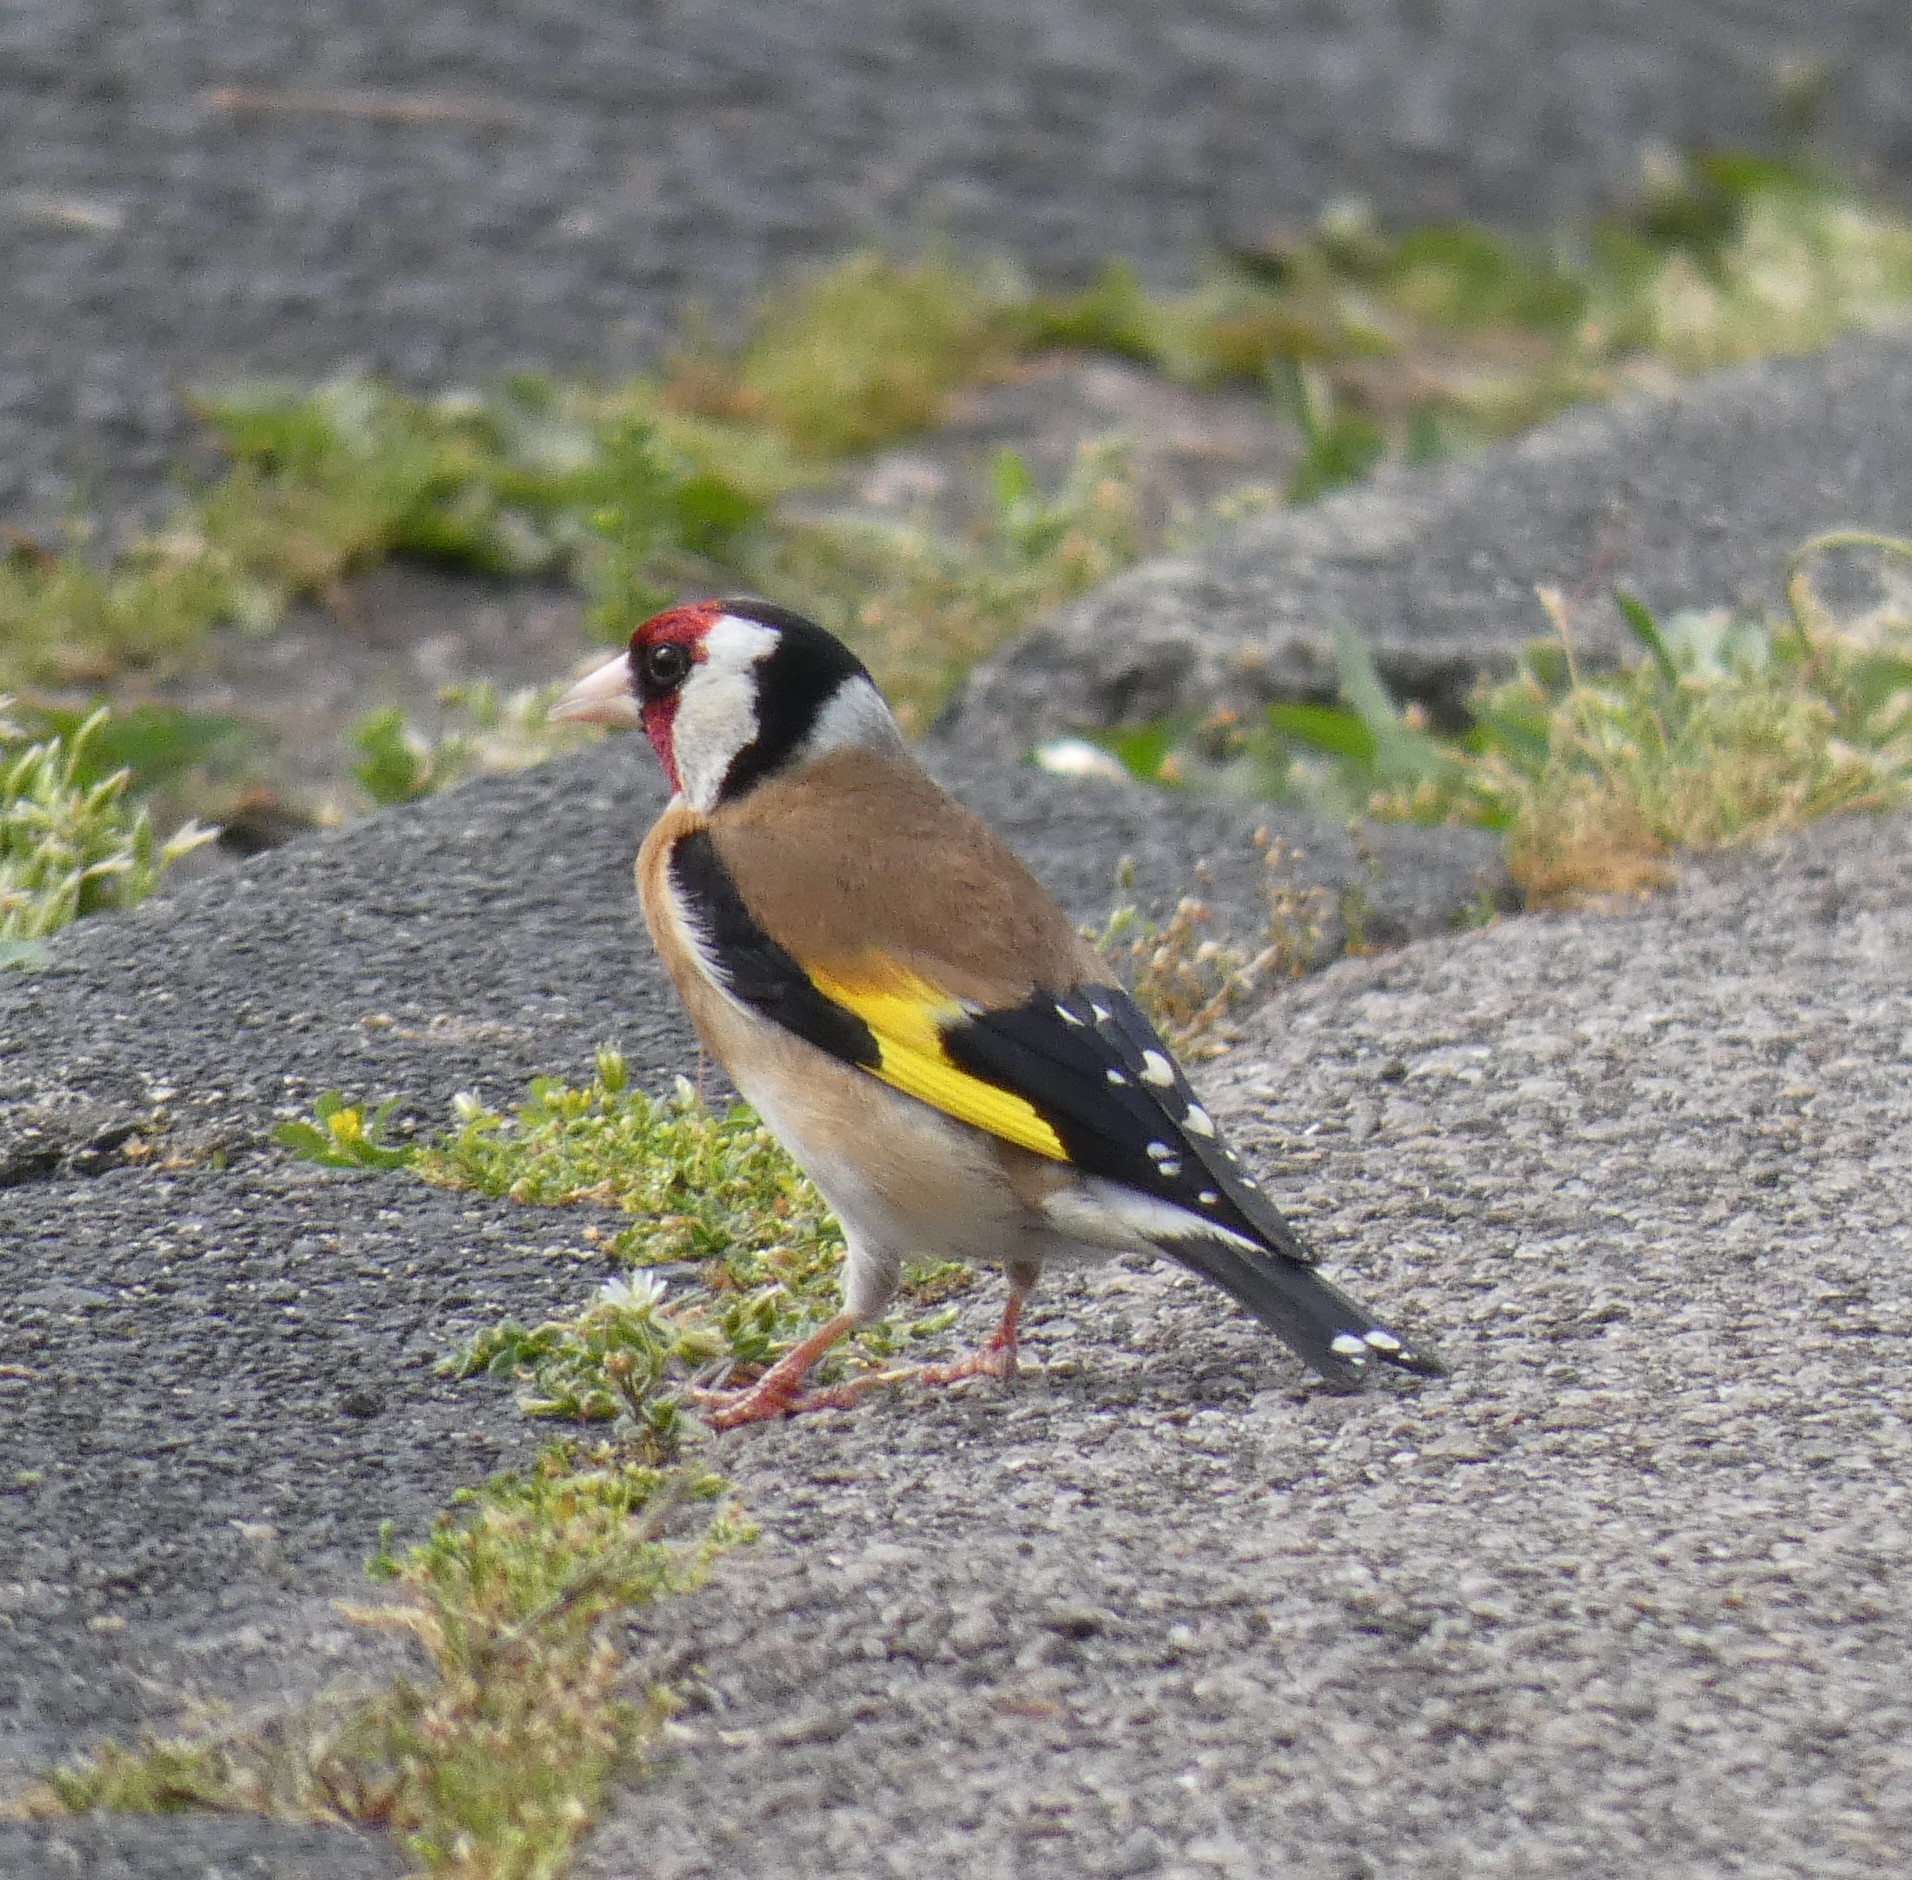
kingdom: Animalia
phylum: Chordata
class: Aves
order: Passeriformes
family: Fringillidae
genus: Carduelis
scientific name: Carduelis carduelis
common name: European goldfinch
